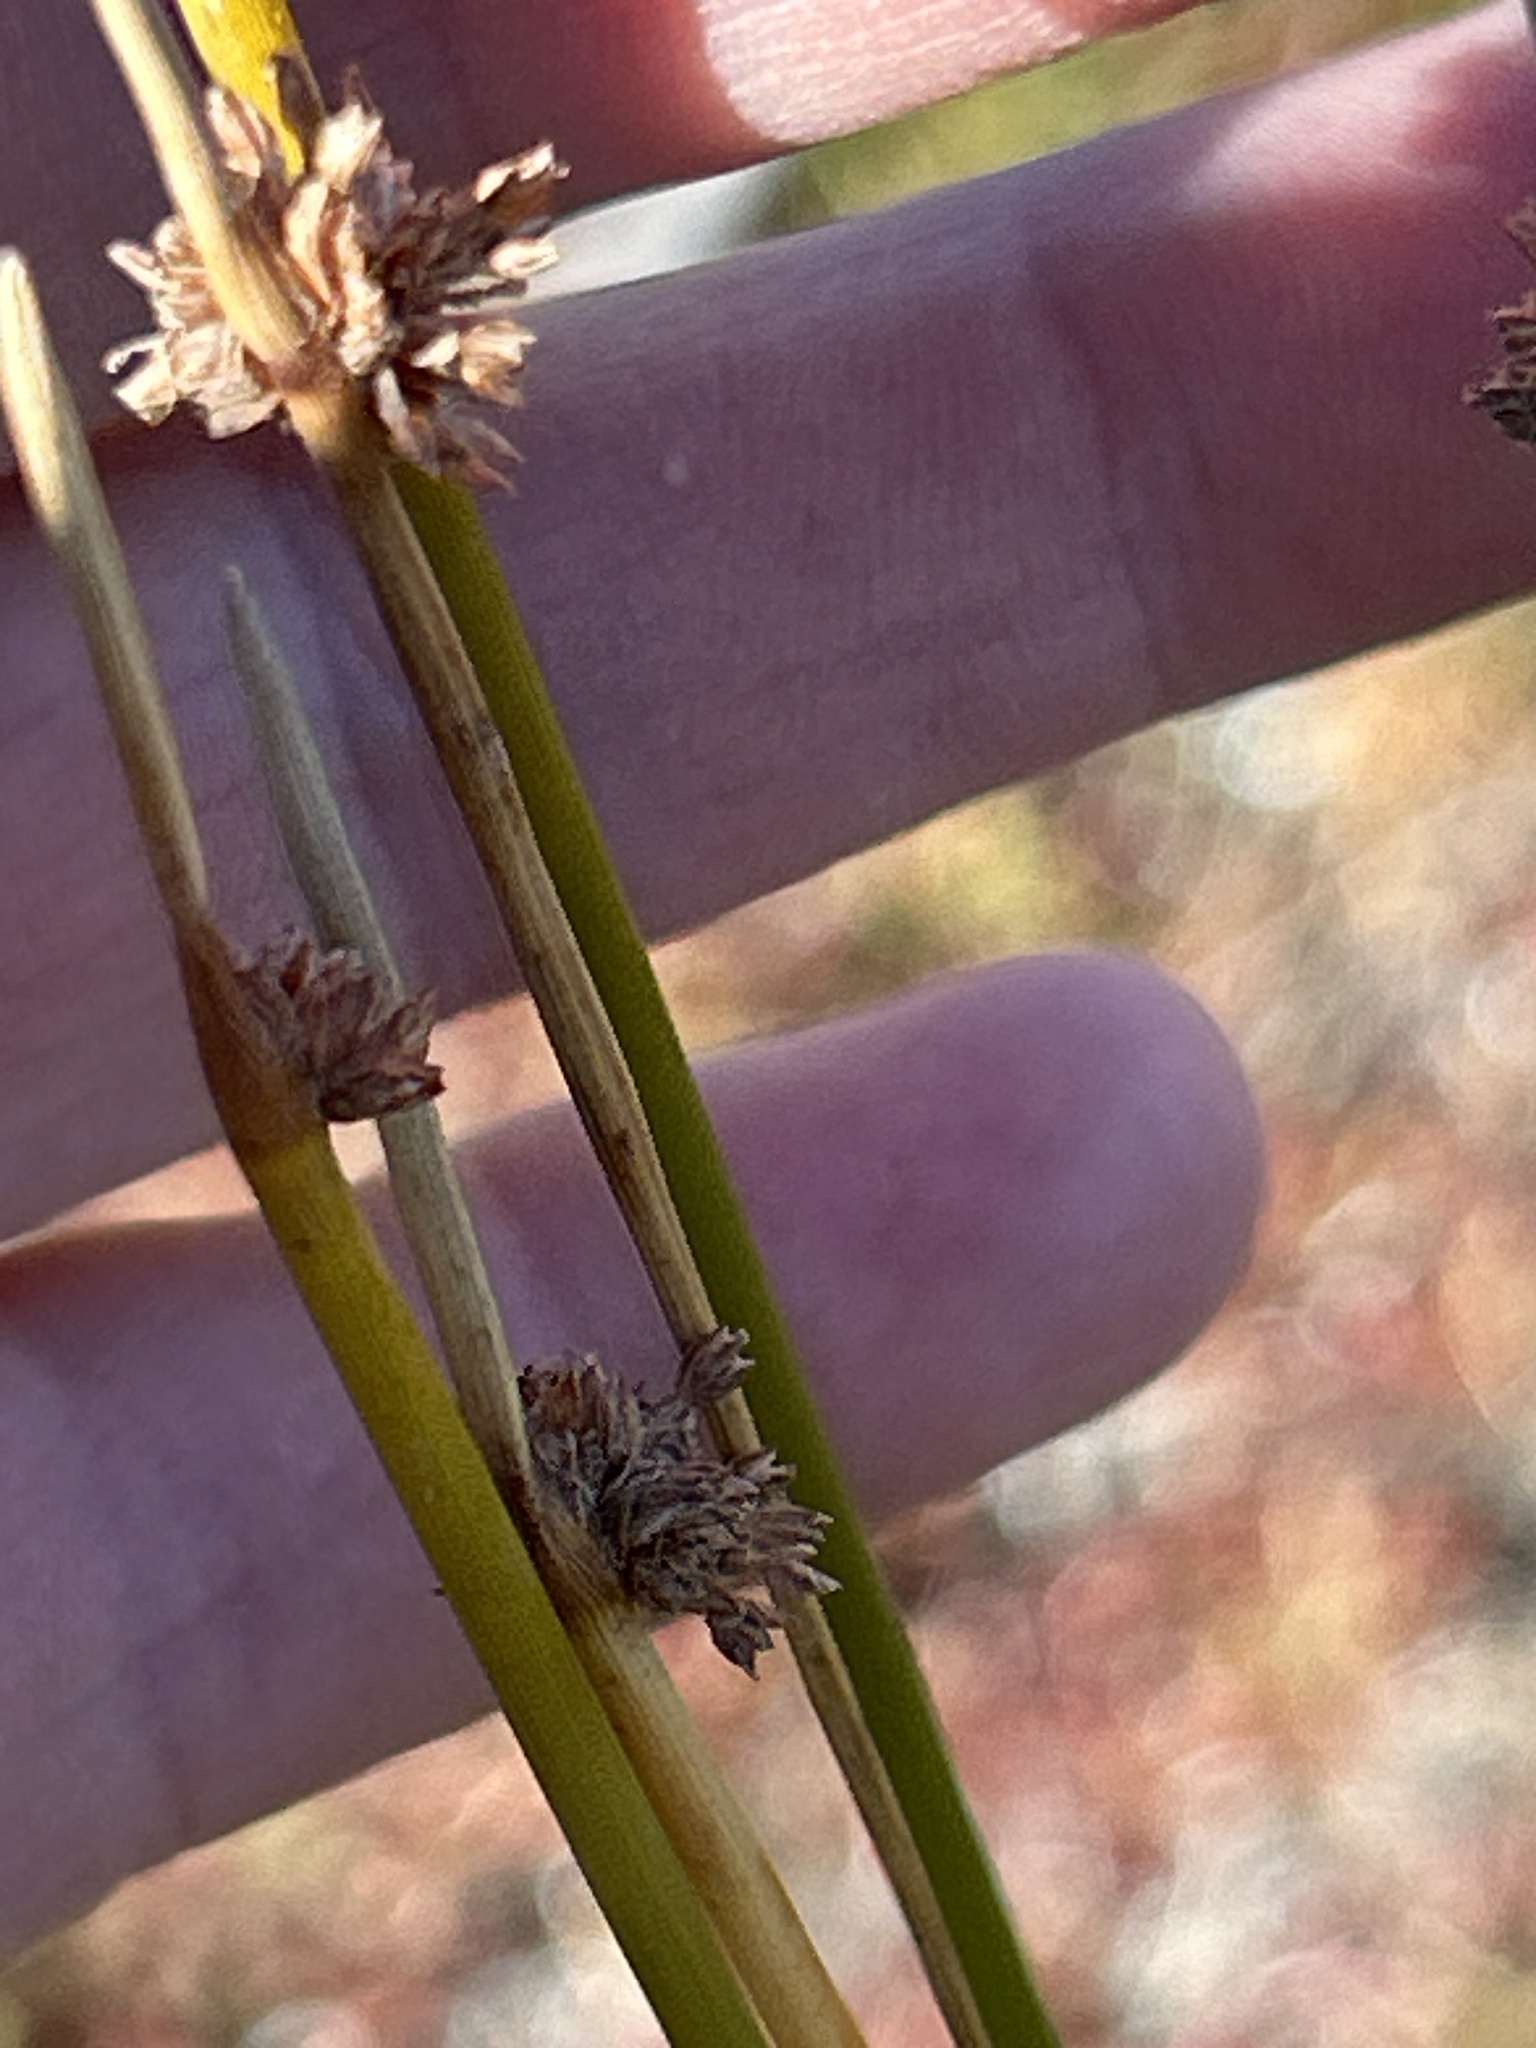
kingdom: Plantae
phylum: Tracheophyta
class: Liliopsida
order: Poales
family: Cyperaceae
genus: Ficinia
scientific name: Ficinia nodosa
